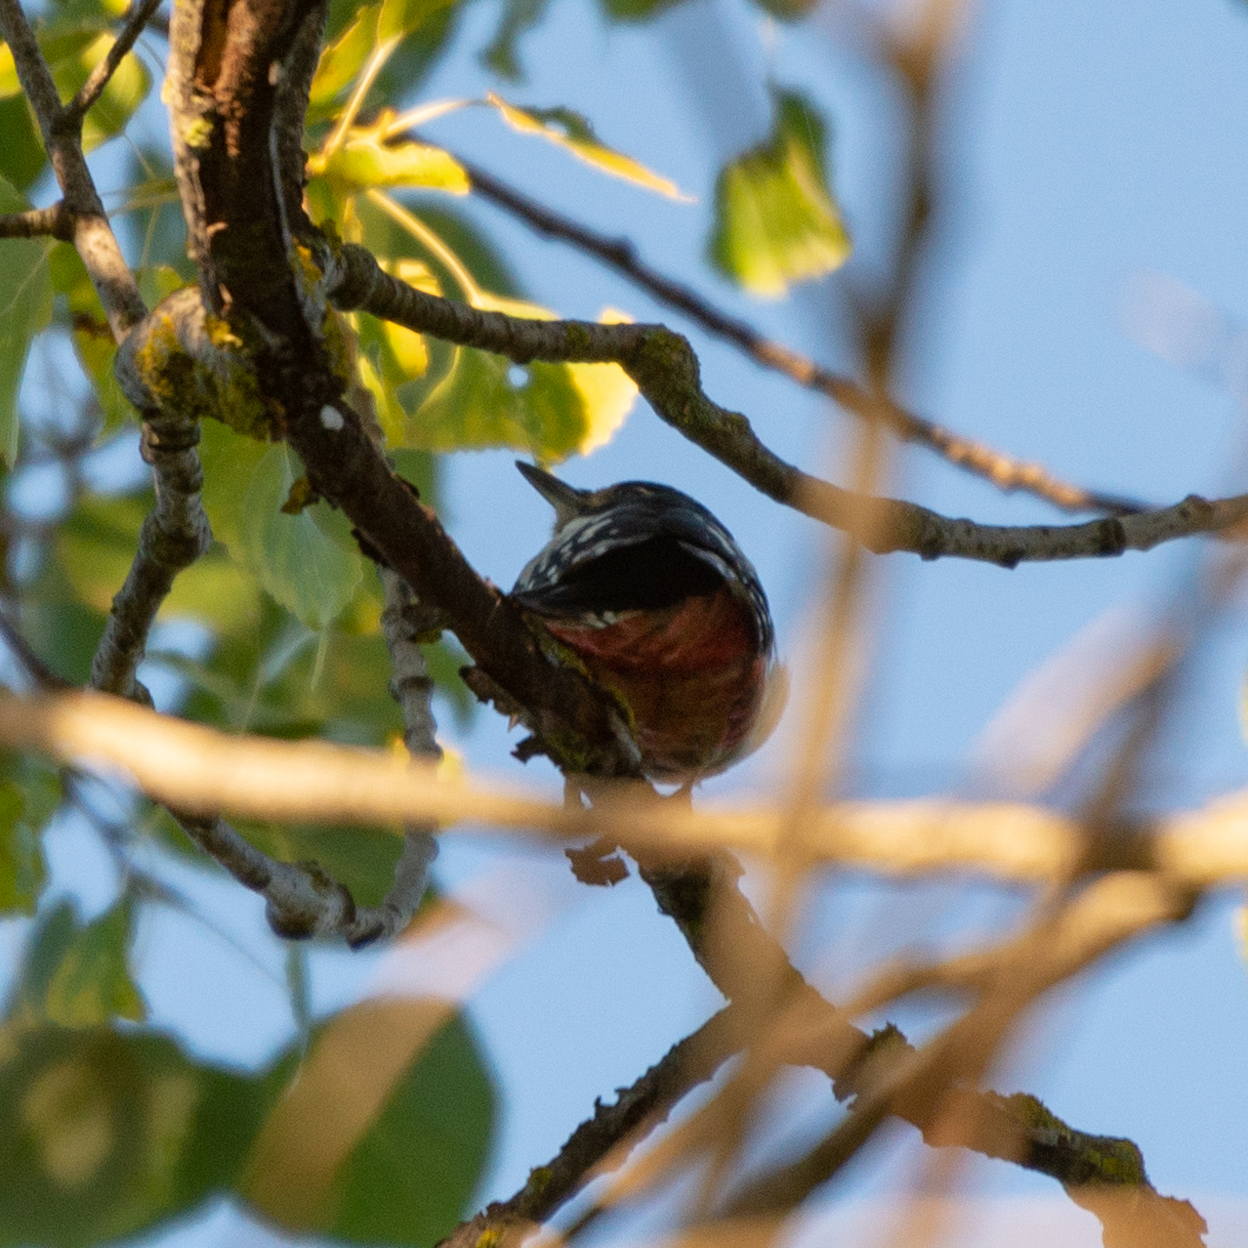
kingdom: Animalia
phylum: Chordata
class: Aves
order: Piciformes
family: Picidae
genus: Dendrocopos
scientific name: Dendrocopos major
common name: Great spotted woodpecker
